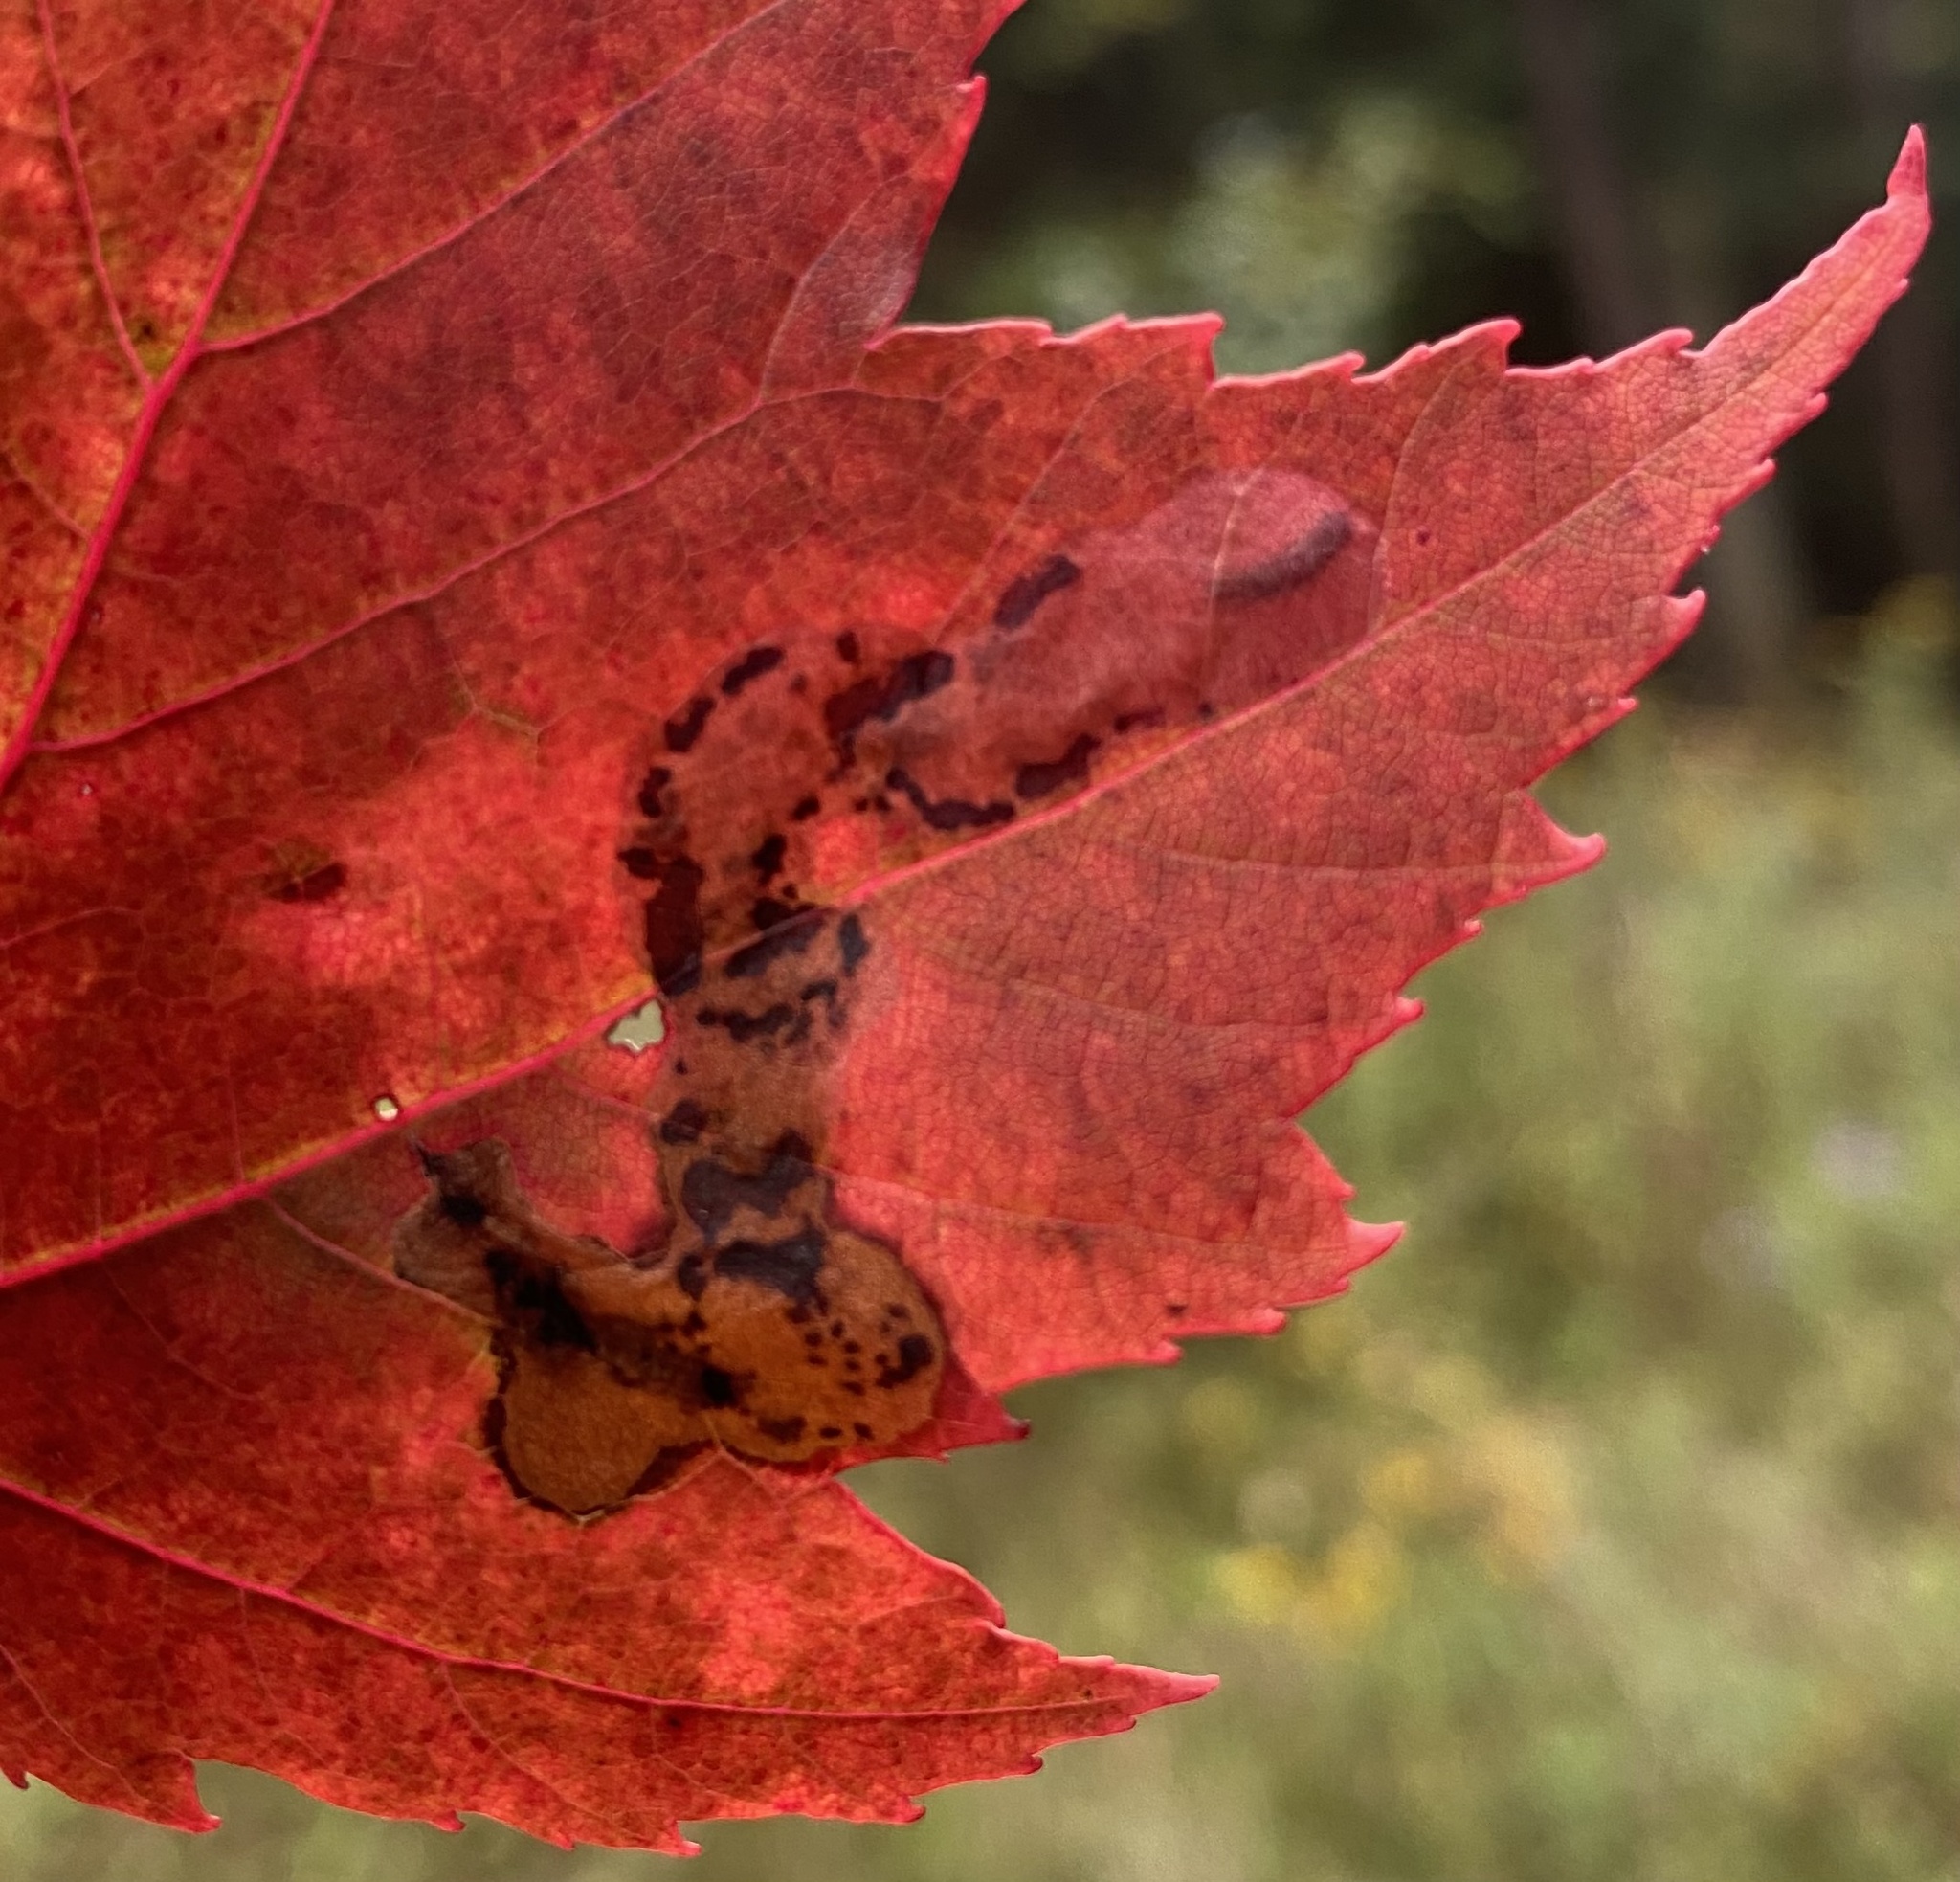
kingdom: Animalia
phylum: Arthropoda
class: Insecta
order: Lepidoptera
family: Gracillariidae
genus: Cameraria
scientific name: Cameraria aceriella
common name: Maple leafblotch miner
